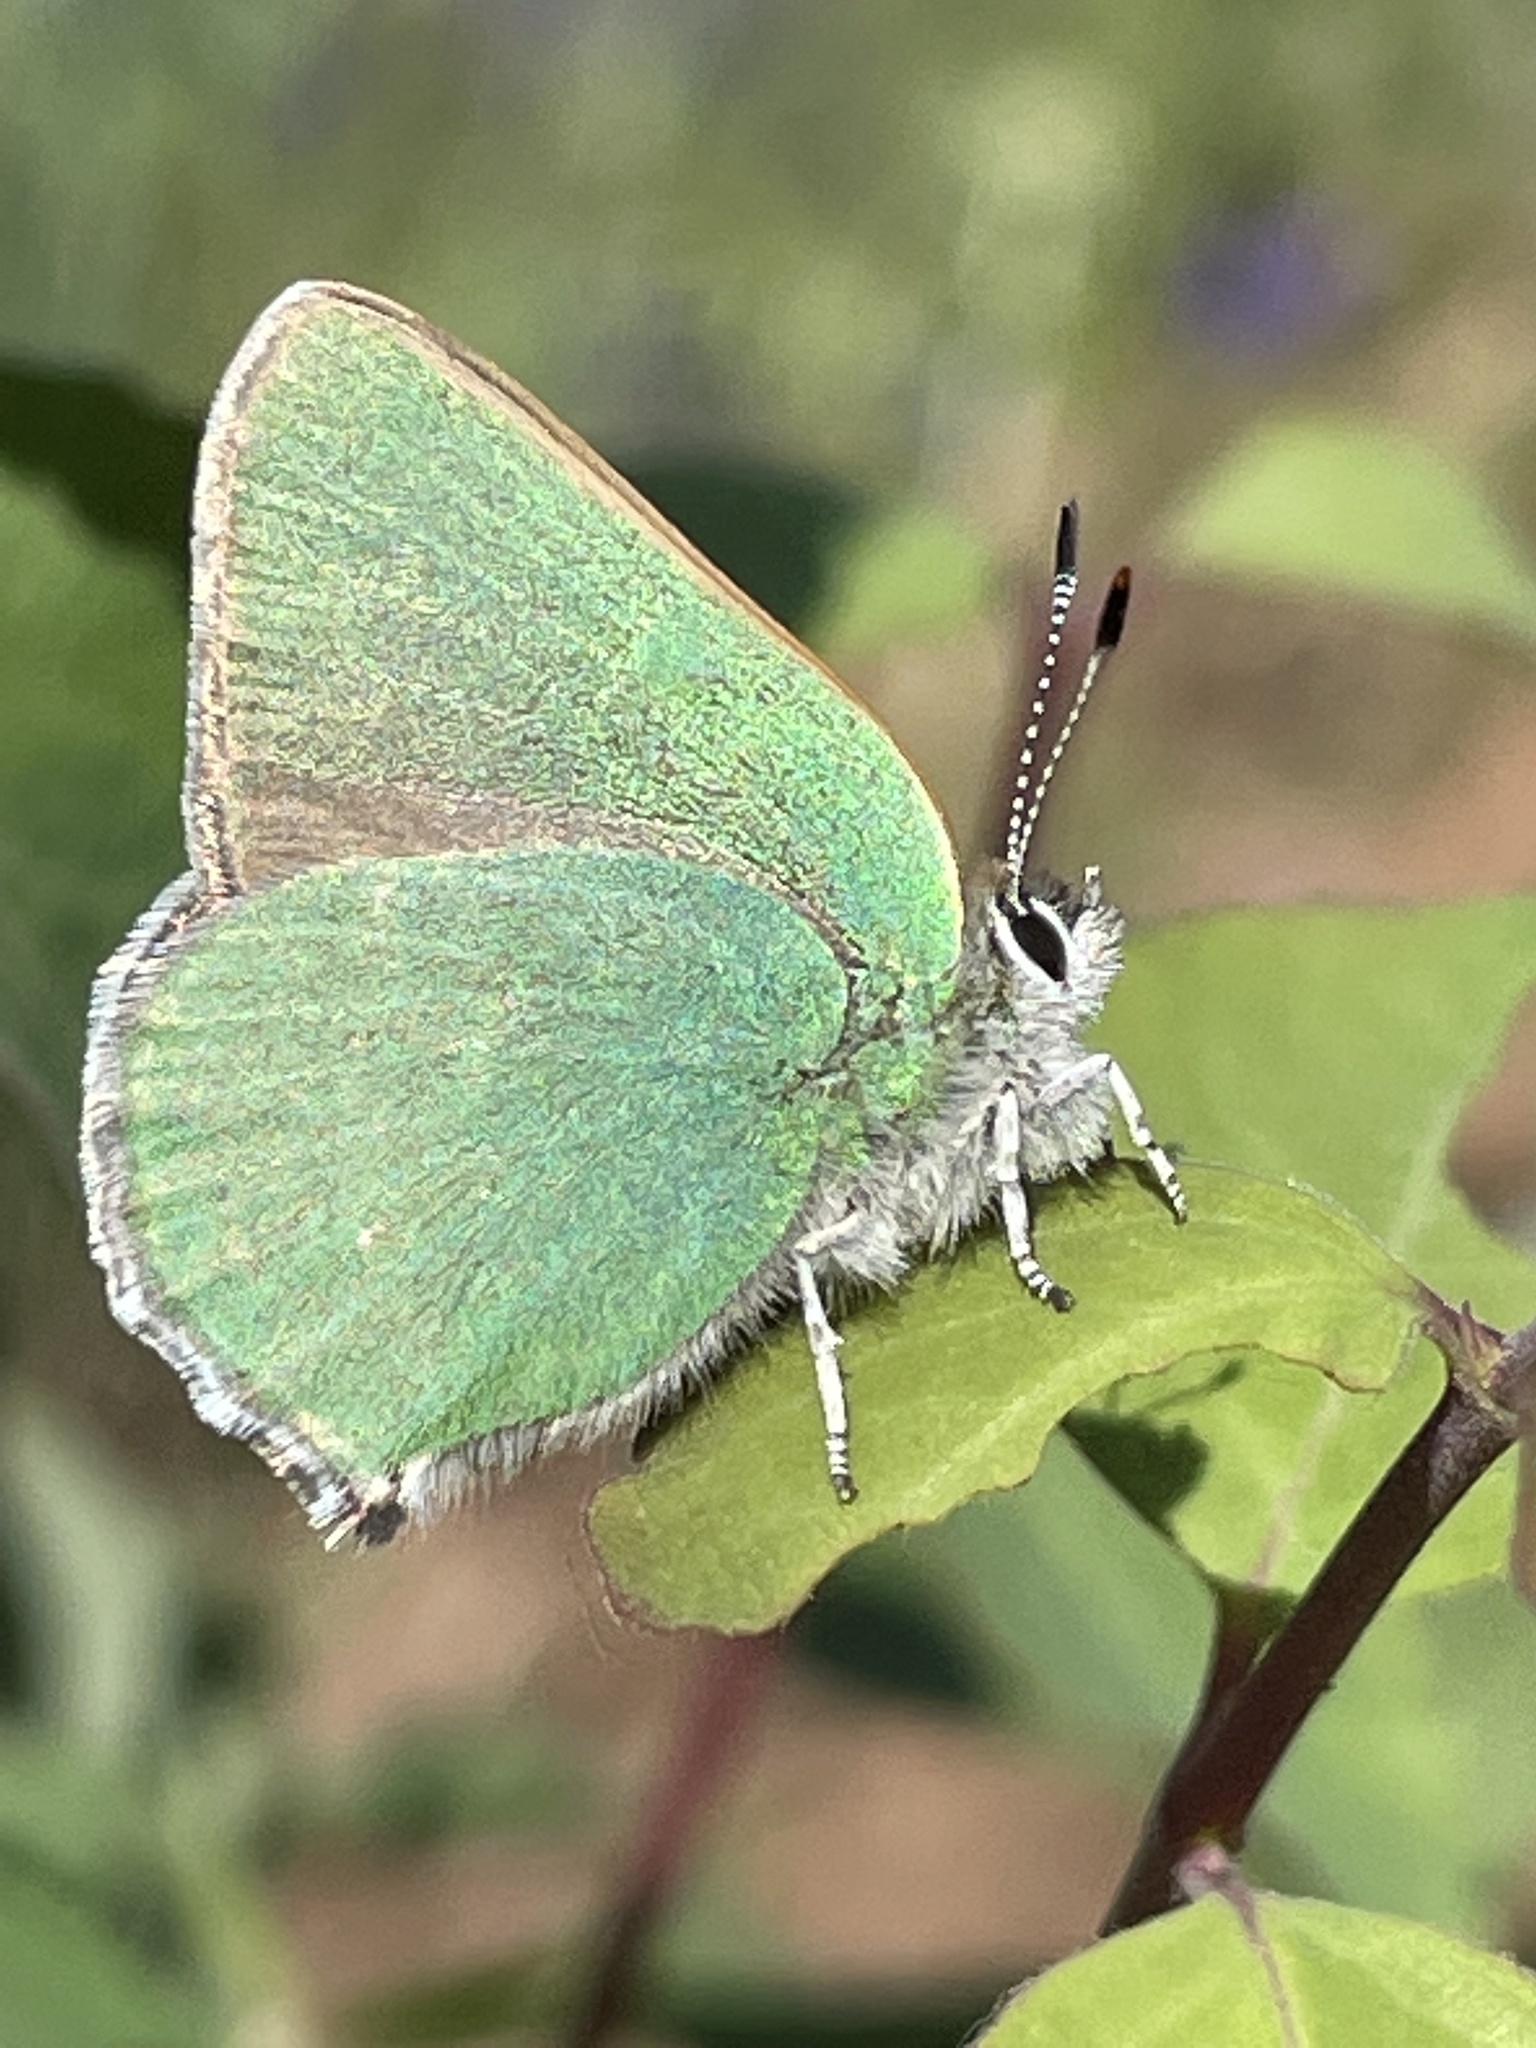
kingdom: Animalia
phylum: Arthropoda
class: Insecta
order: Lepidoptera
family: Lycaenidae
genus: Callophrys
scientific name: Callophrys affinis
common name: Western green hairstreak
